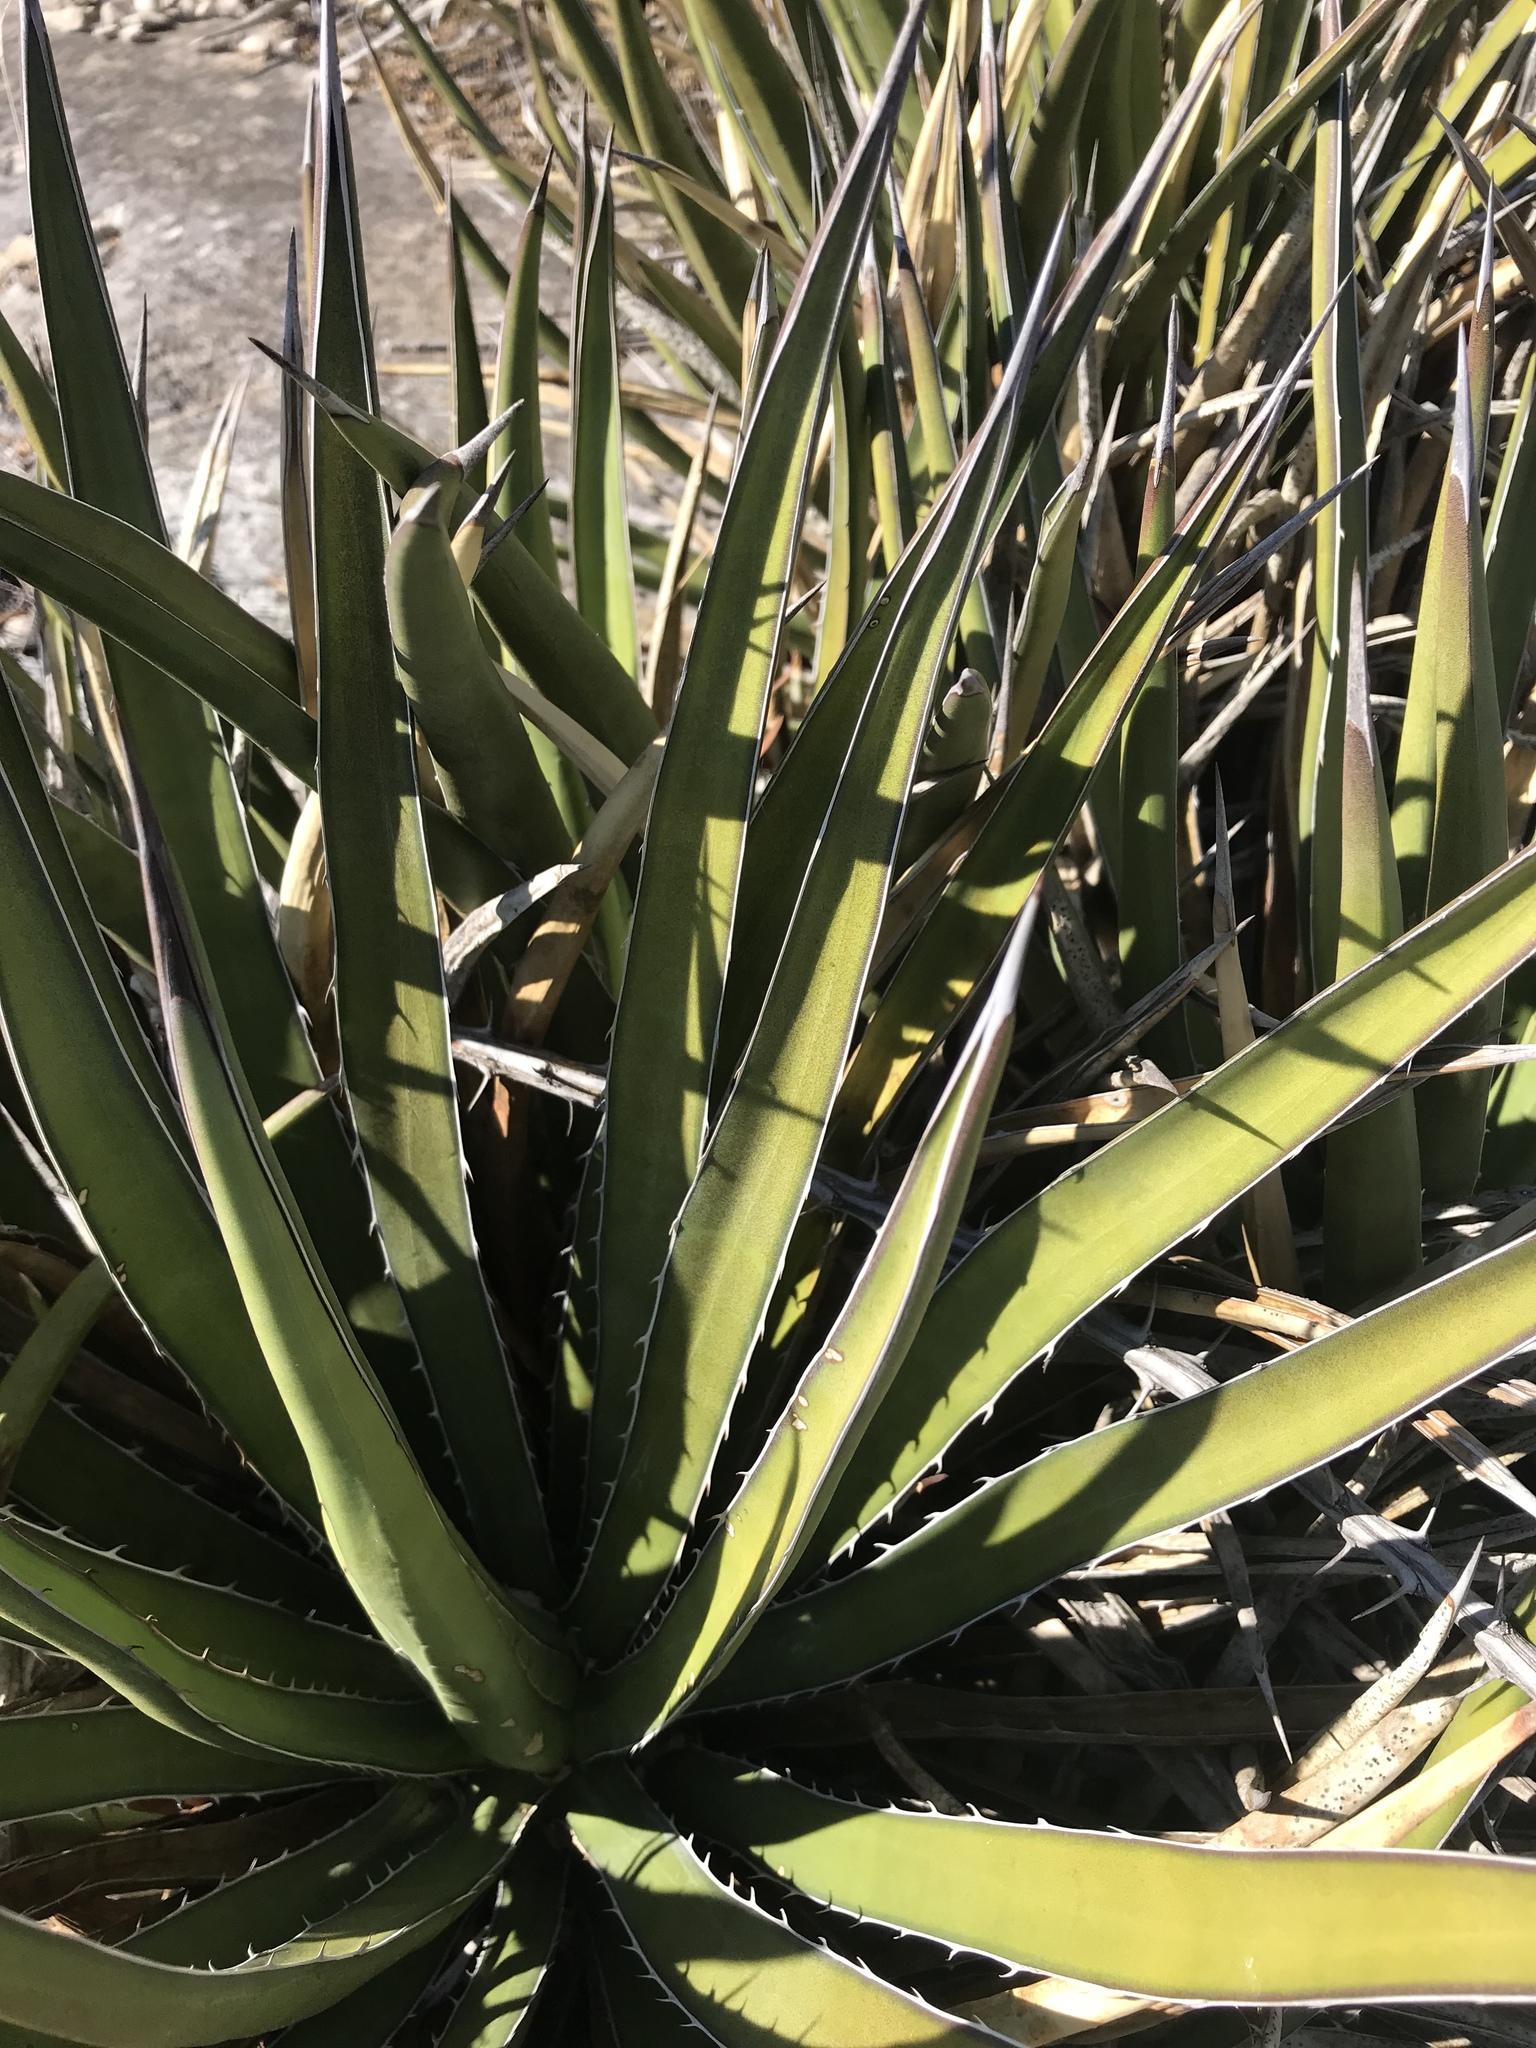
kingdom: Plantae
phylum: Tracheophyta
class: Liliopsida
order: Asparagales
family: Asparagaceae
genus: Agave
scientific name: Agave lechuguilla
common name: Lecheguilla agave
